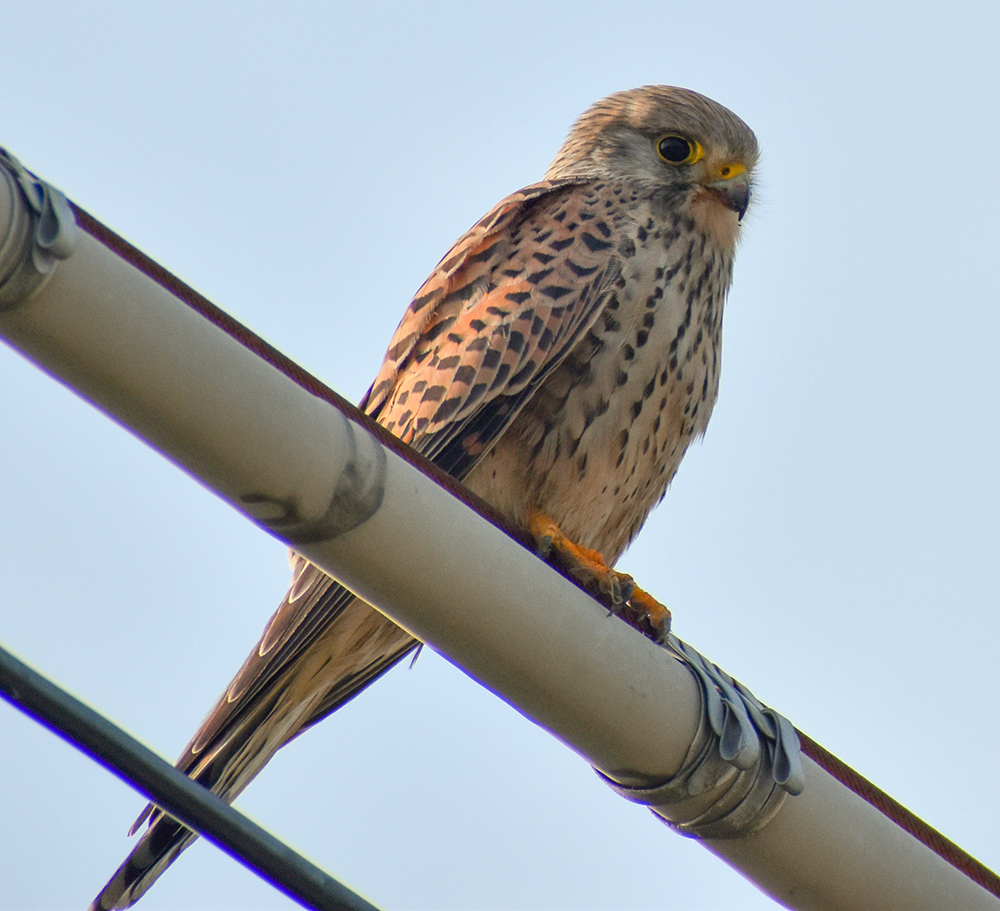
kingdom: Animalia
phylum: Chordata
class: Aves
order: Falconiformes
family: Falconidae
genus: Falco
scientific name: Falco tinnunculus
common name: Common kestrel
